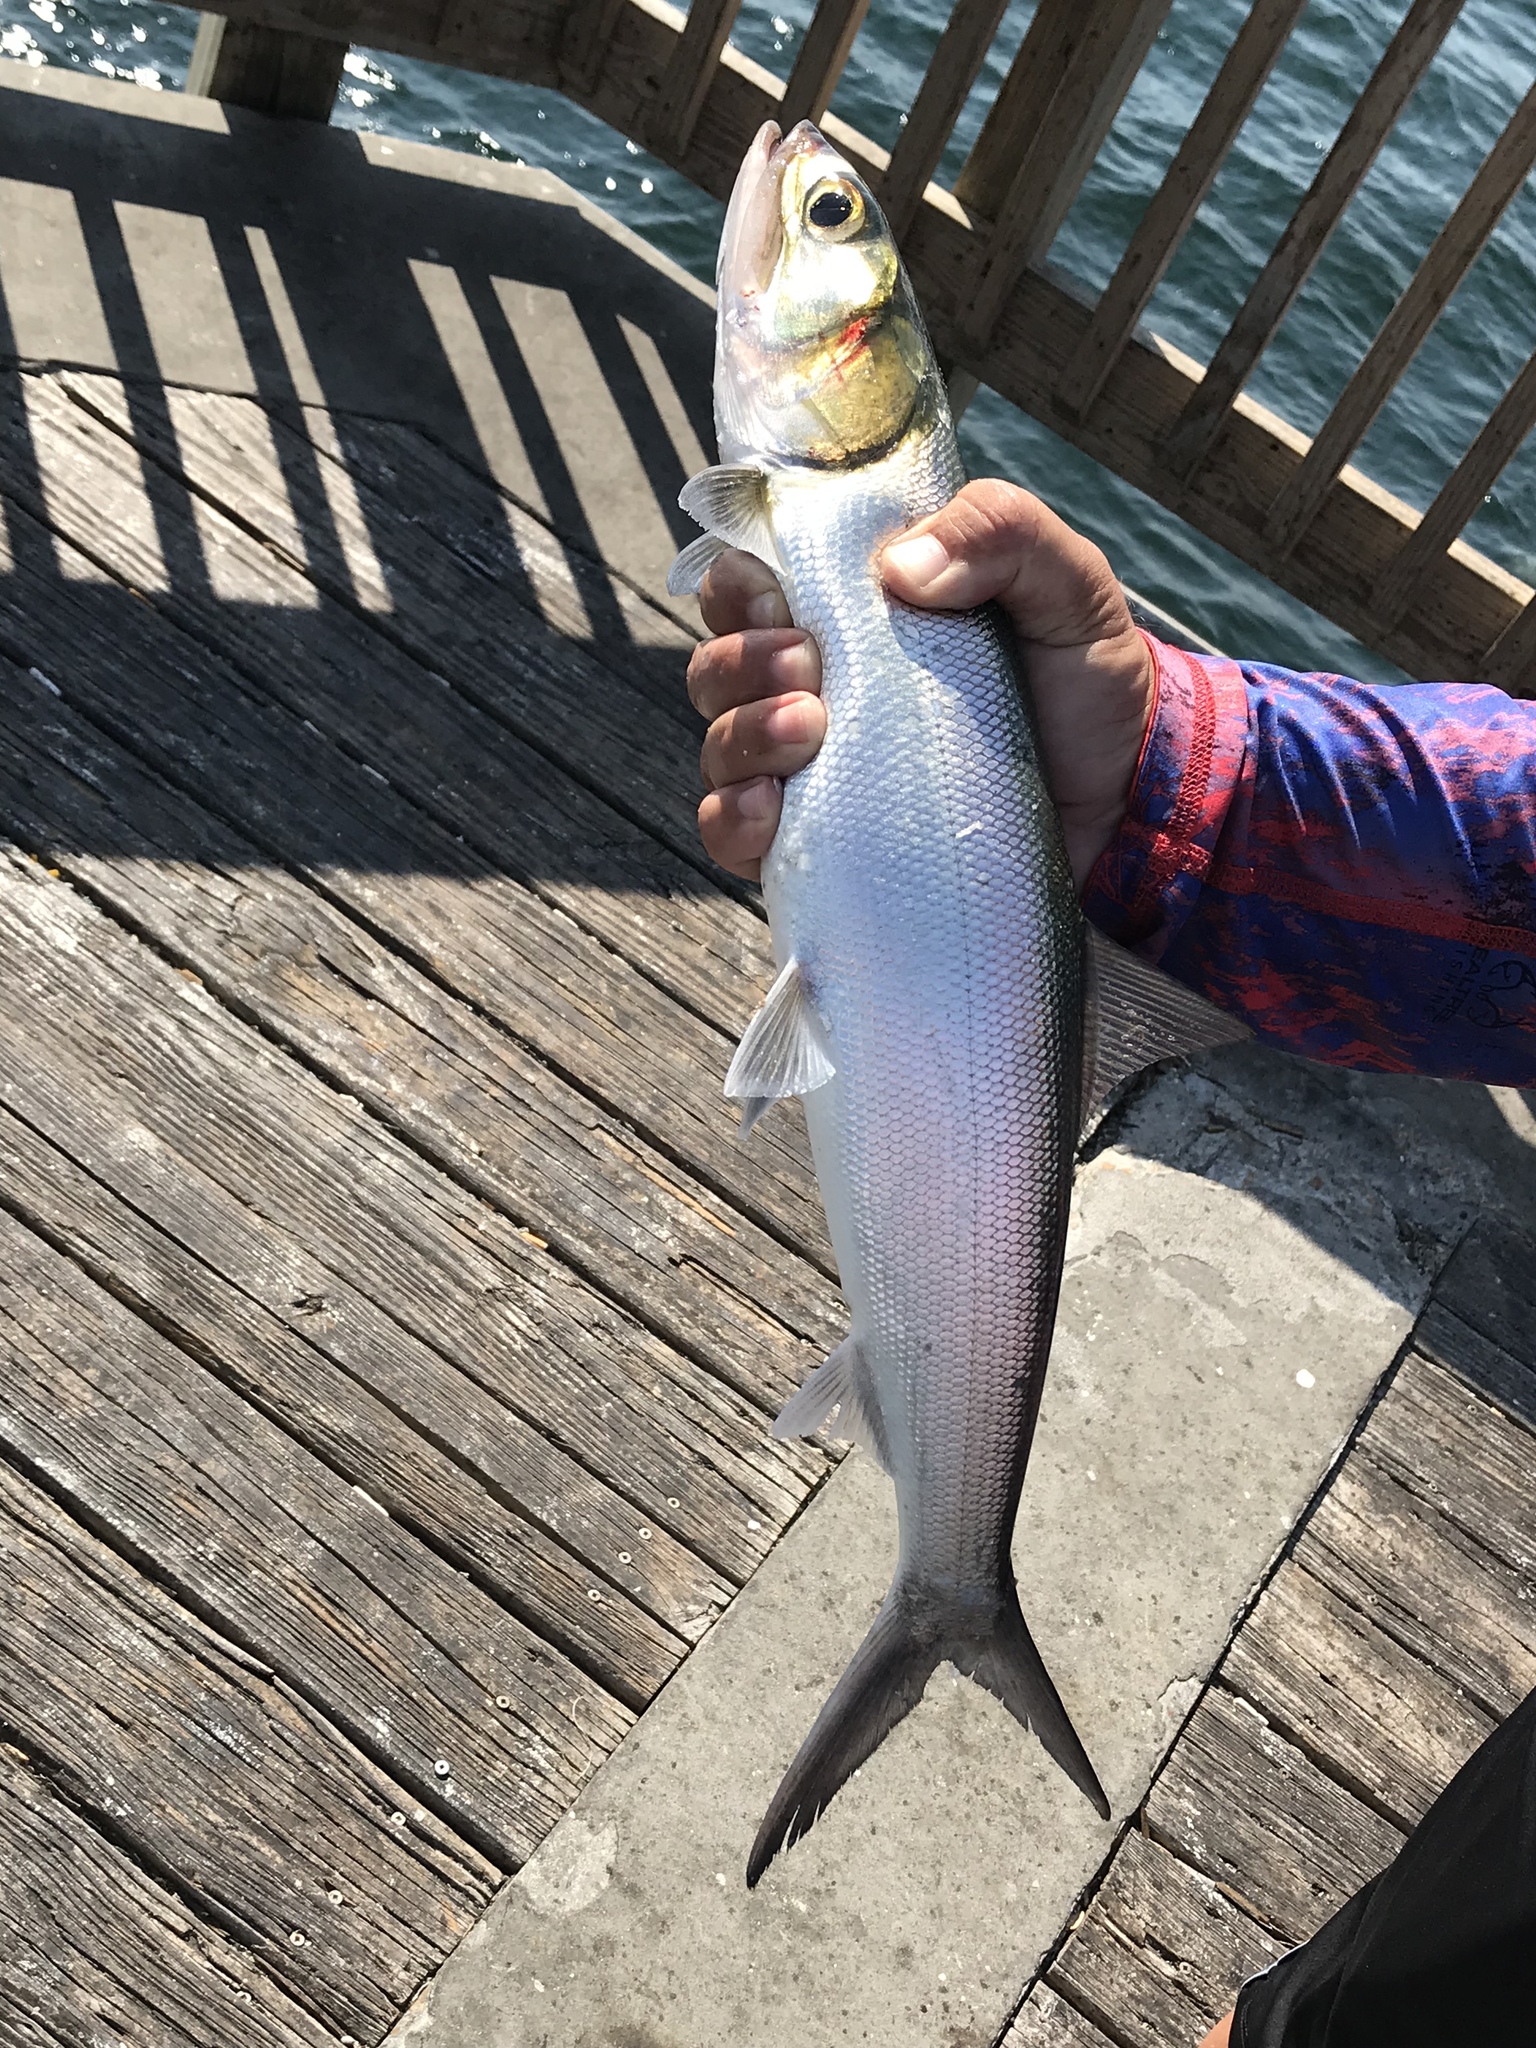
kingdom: Animalia
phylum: Chordata
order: Elopiformes
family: Elopidae
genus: Elops
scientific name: Elops saurus
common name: Ladyfish
